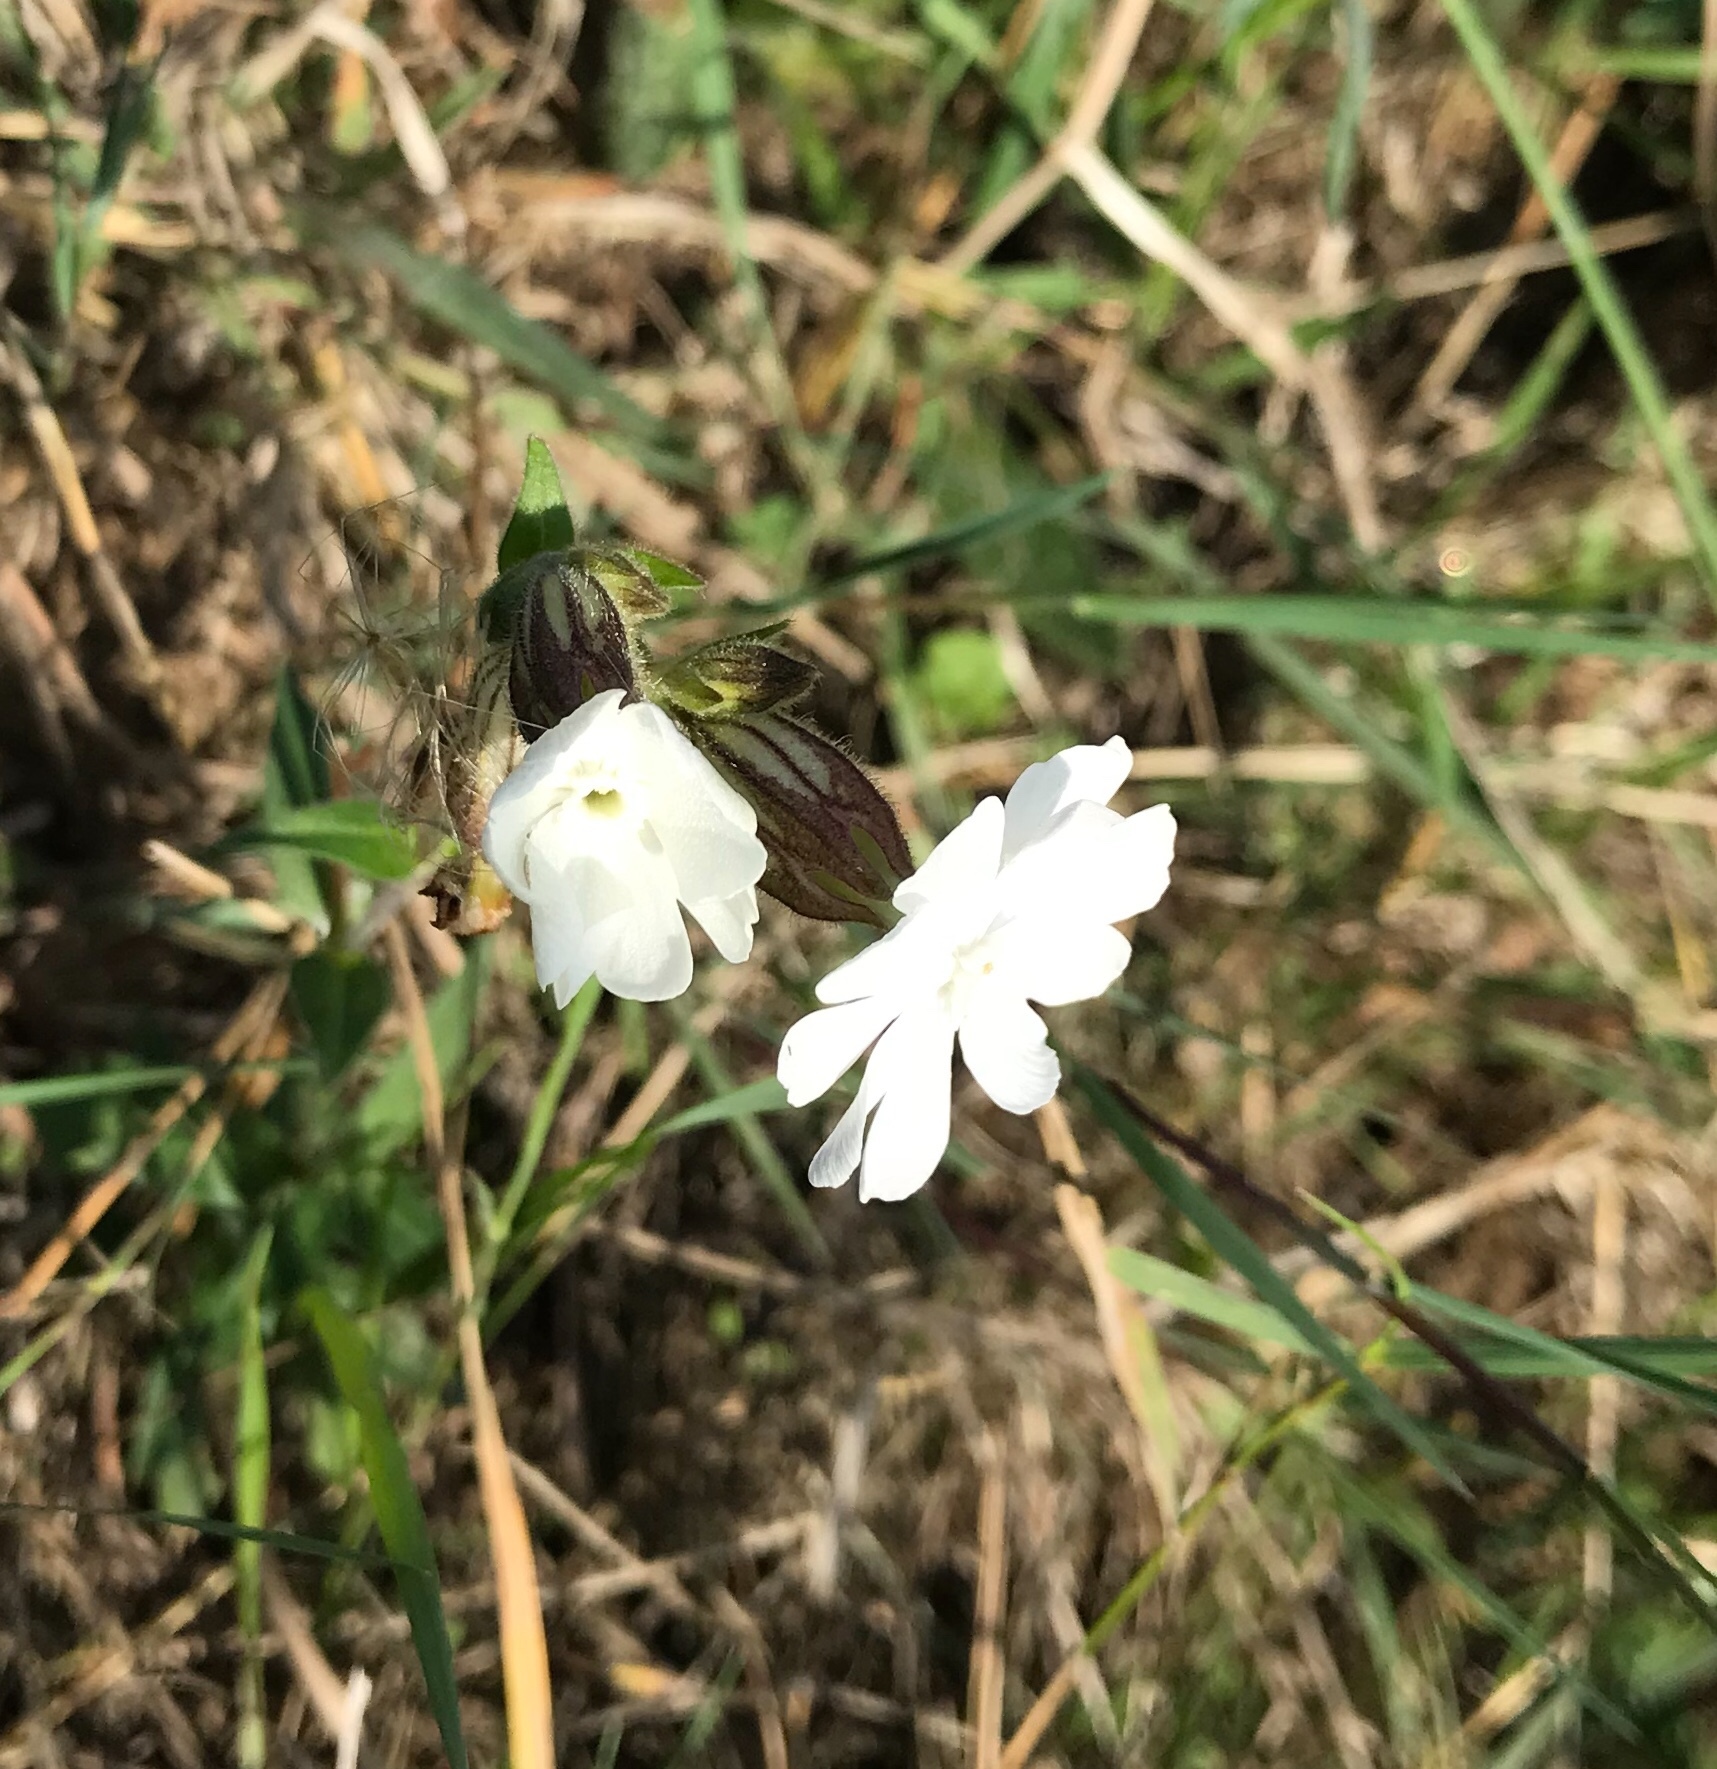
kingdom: Plantae
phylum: Tracheophyta
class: Magnoliopsida
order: Caryophyllales
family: Caryophyllaceae
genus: Silene
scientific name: Silene latifolia
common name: White campion
